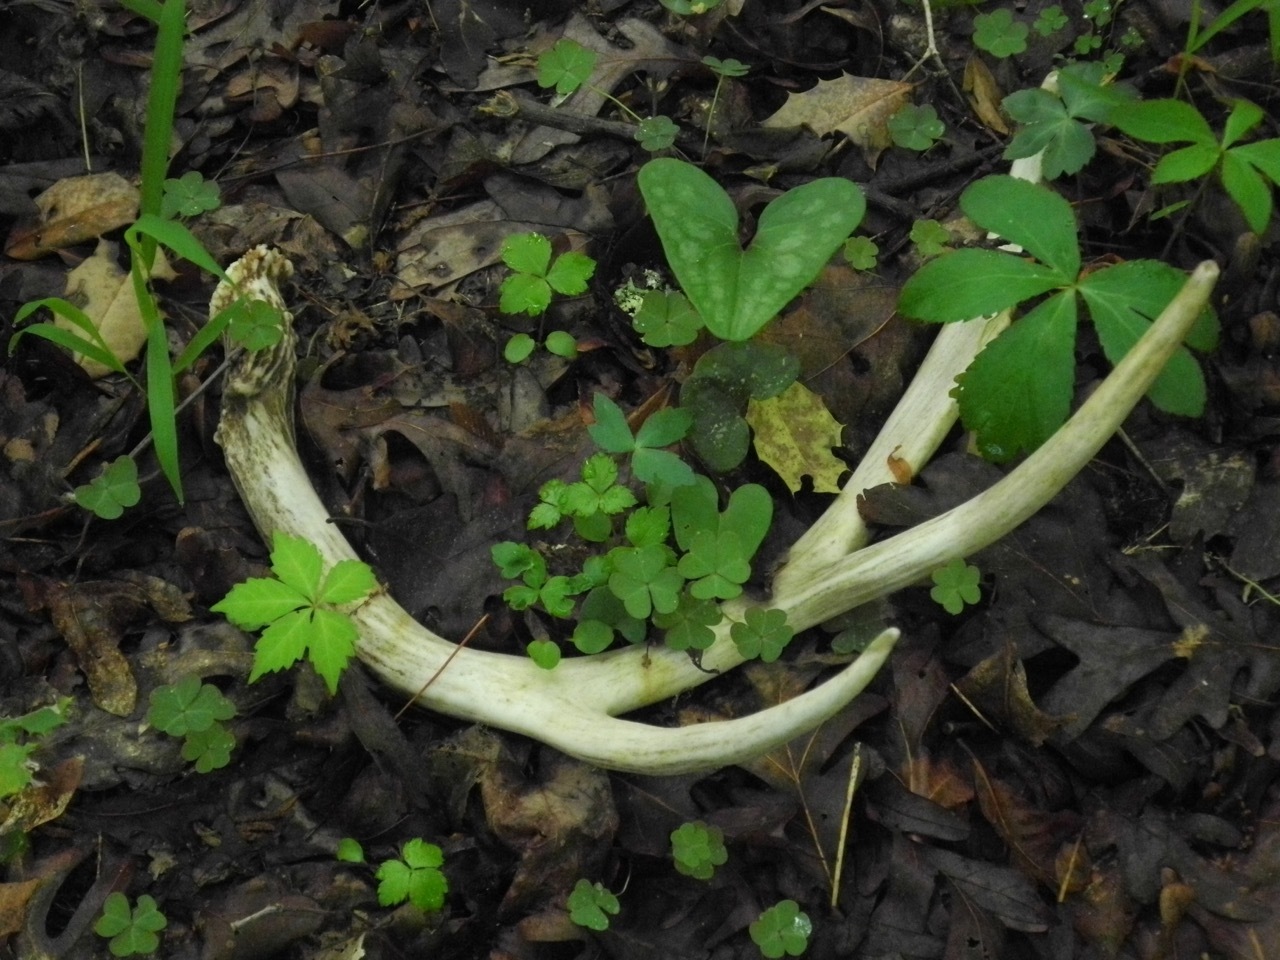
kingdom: Animalia
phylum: Chordata
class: Mammalia
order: Artiodactyla
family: Cervidae
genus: Odocoileus
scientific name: Odocoileus virginianus
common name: White-tailed deer
